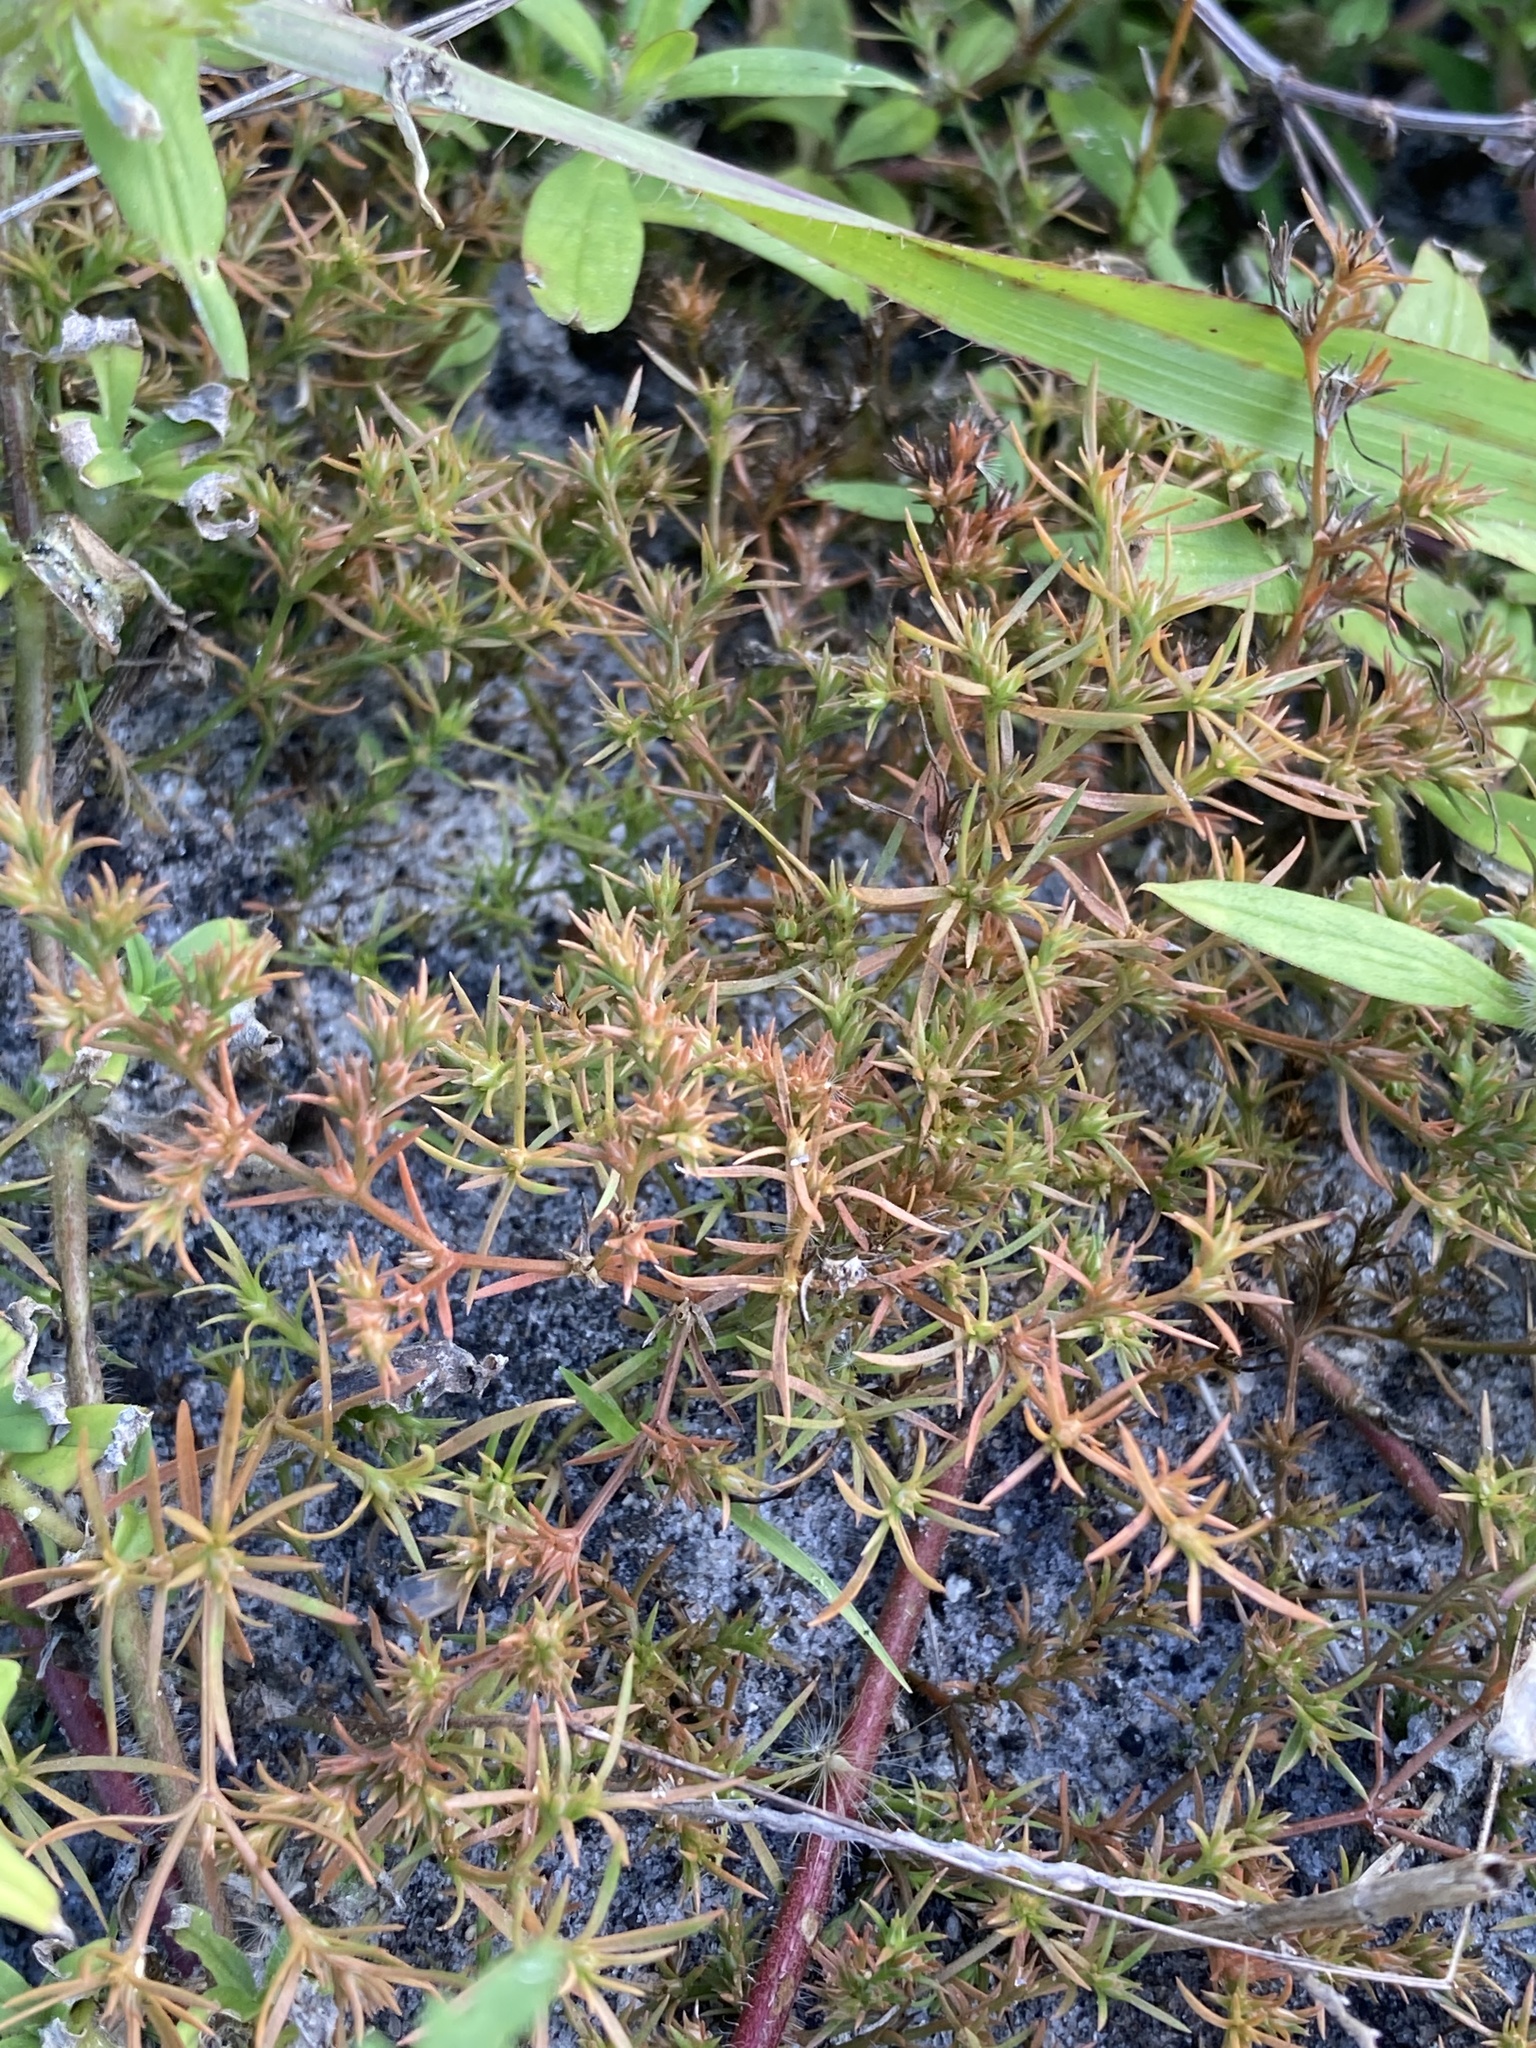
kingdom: Plantae
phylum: Tracheophyta
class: Magnoliopsida
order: Lamiales
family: Tetrachondraceae
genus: Polypremum
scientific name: Polypremum procumbens
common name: Juniper-leaf
